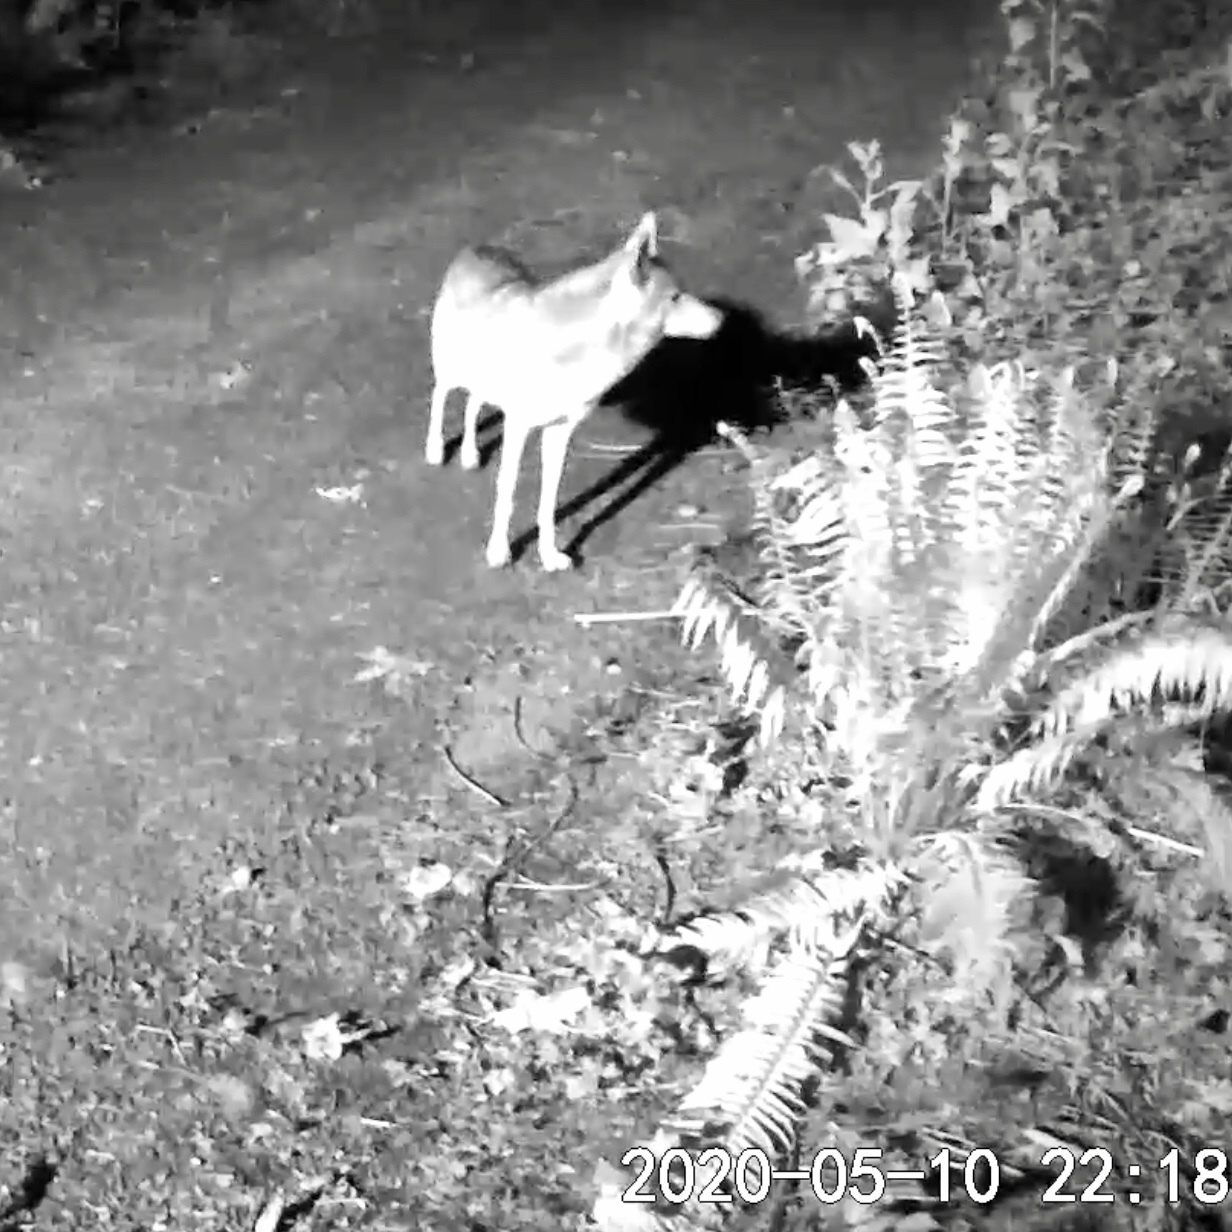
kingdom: Animalia
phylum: Chordata
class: Mammalia
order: Carnivora
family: Canidae
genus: Canis
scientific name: Canis latrans
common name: Coyote
